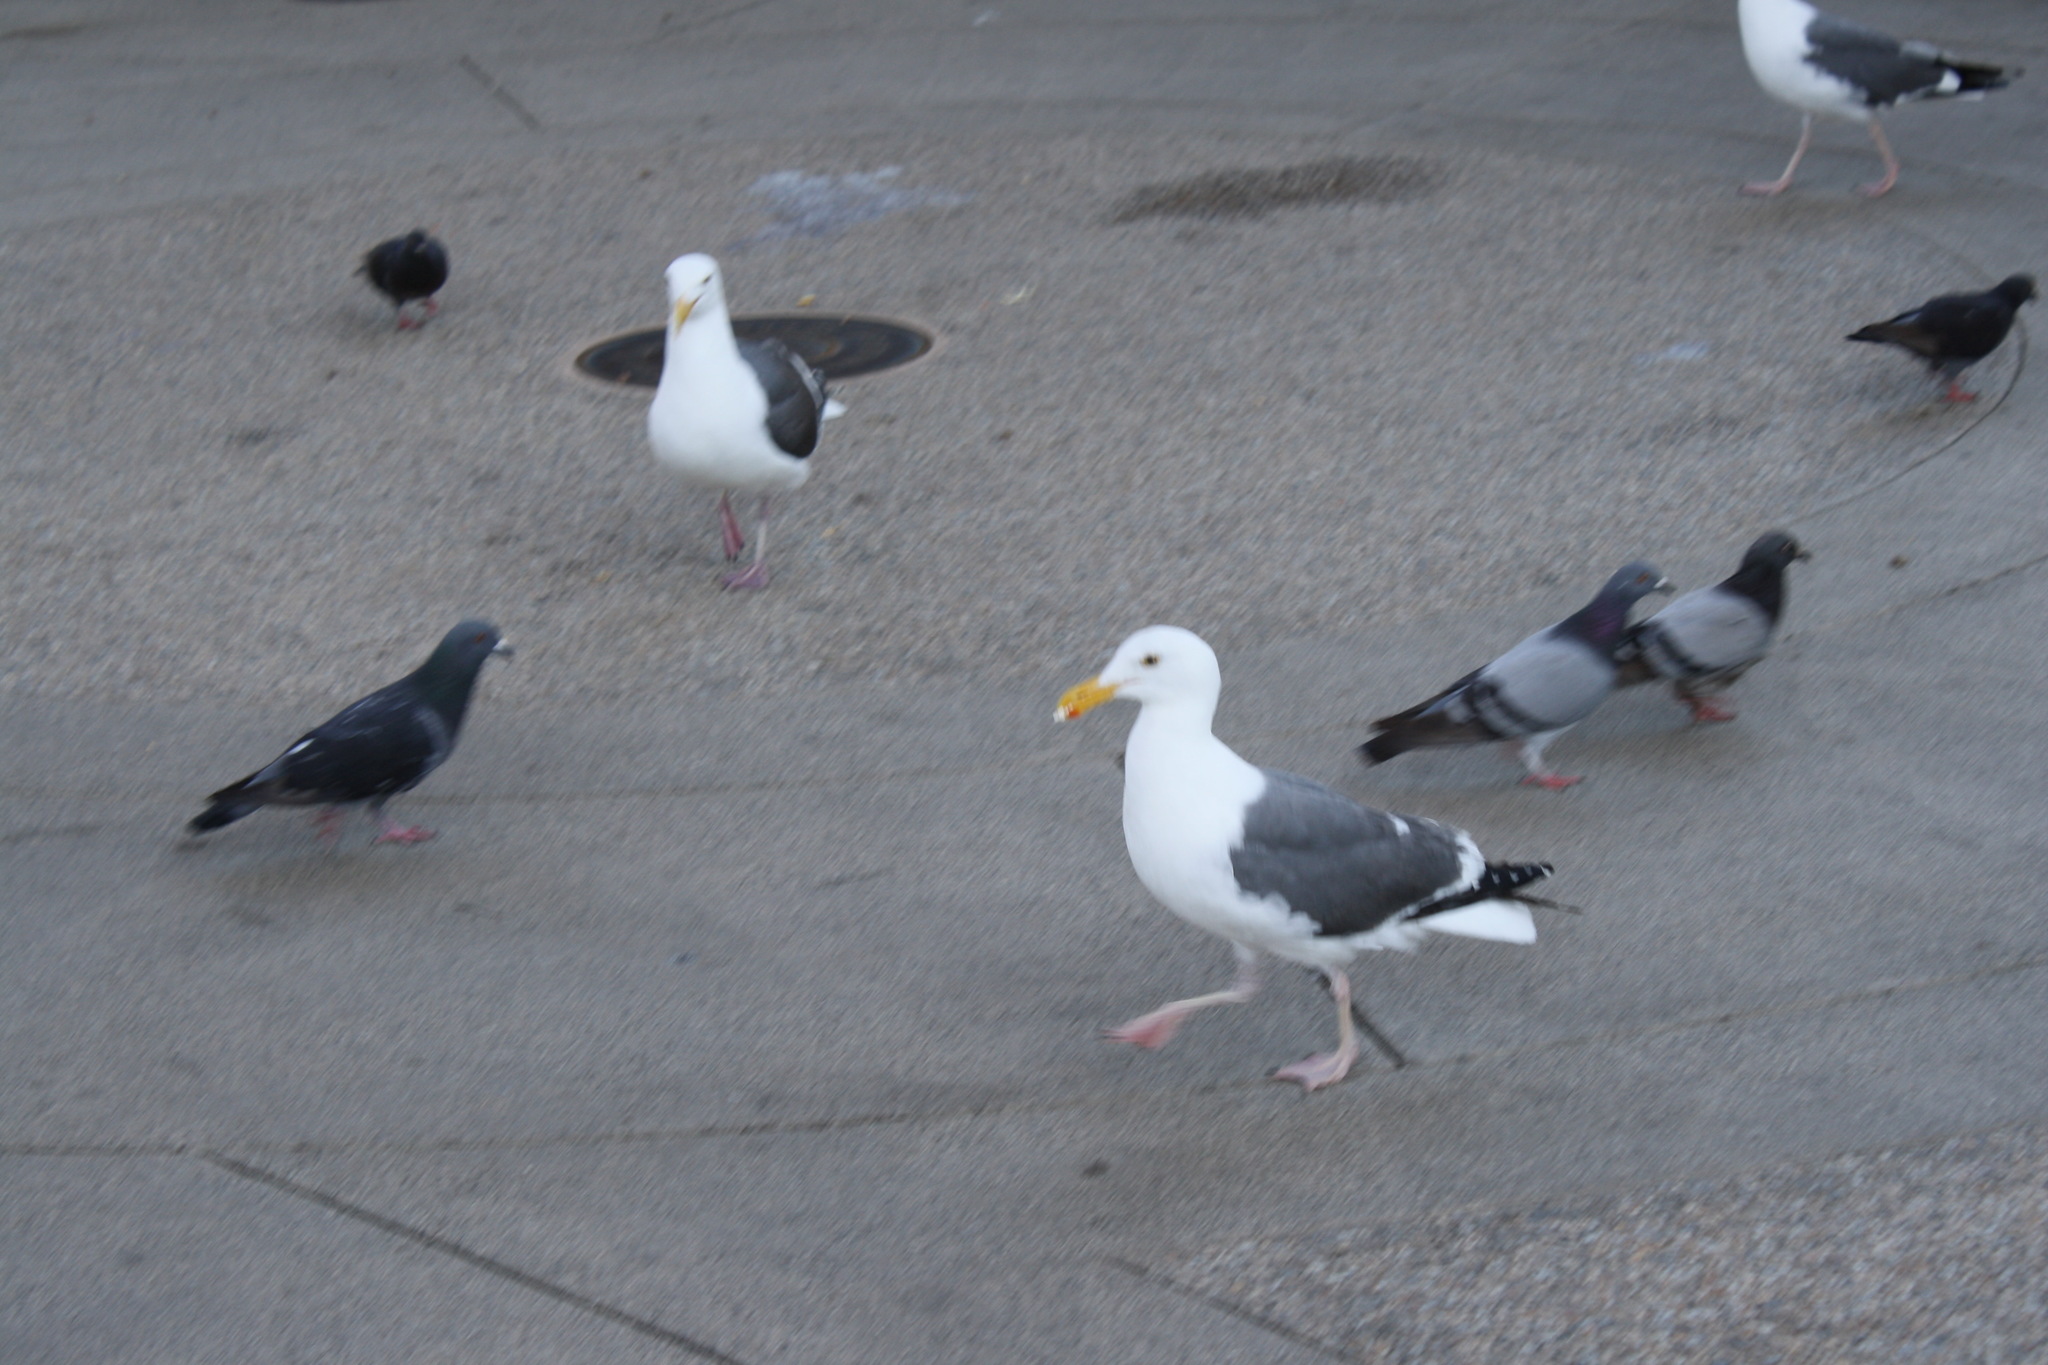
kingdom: Animalia
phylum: Chordata
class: Aves
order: Charadriiformes
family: Laridae
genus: Larus
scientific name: Larus occidentalis
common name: Western gull
